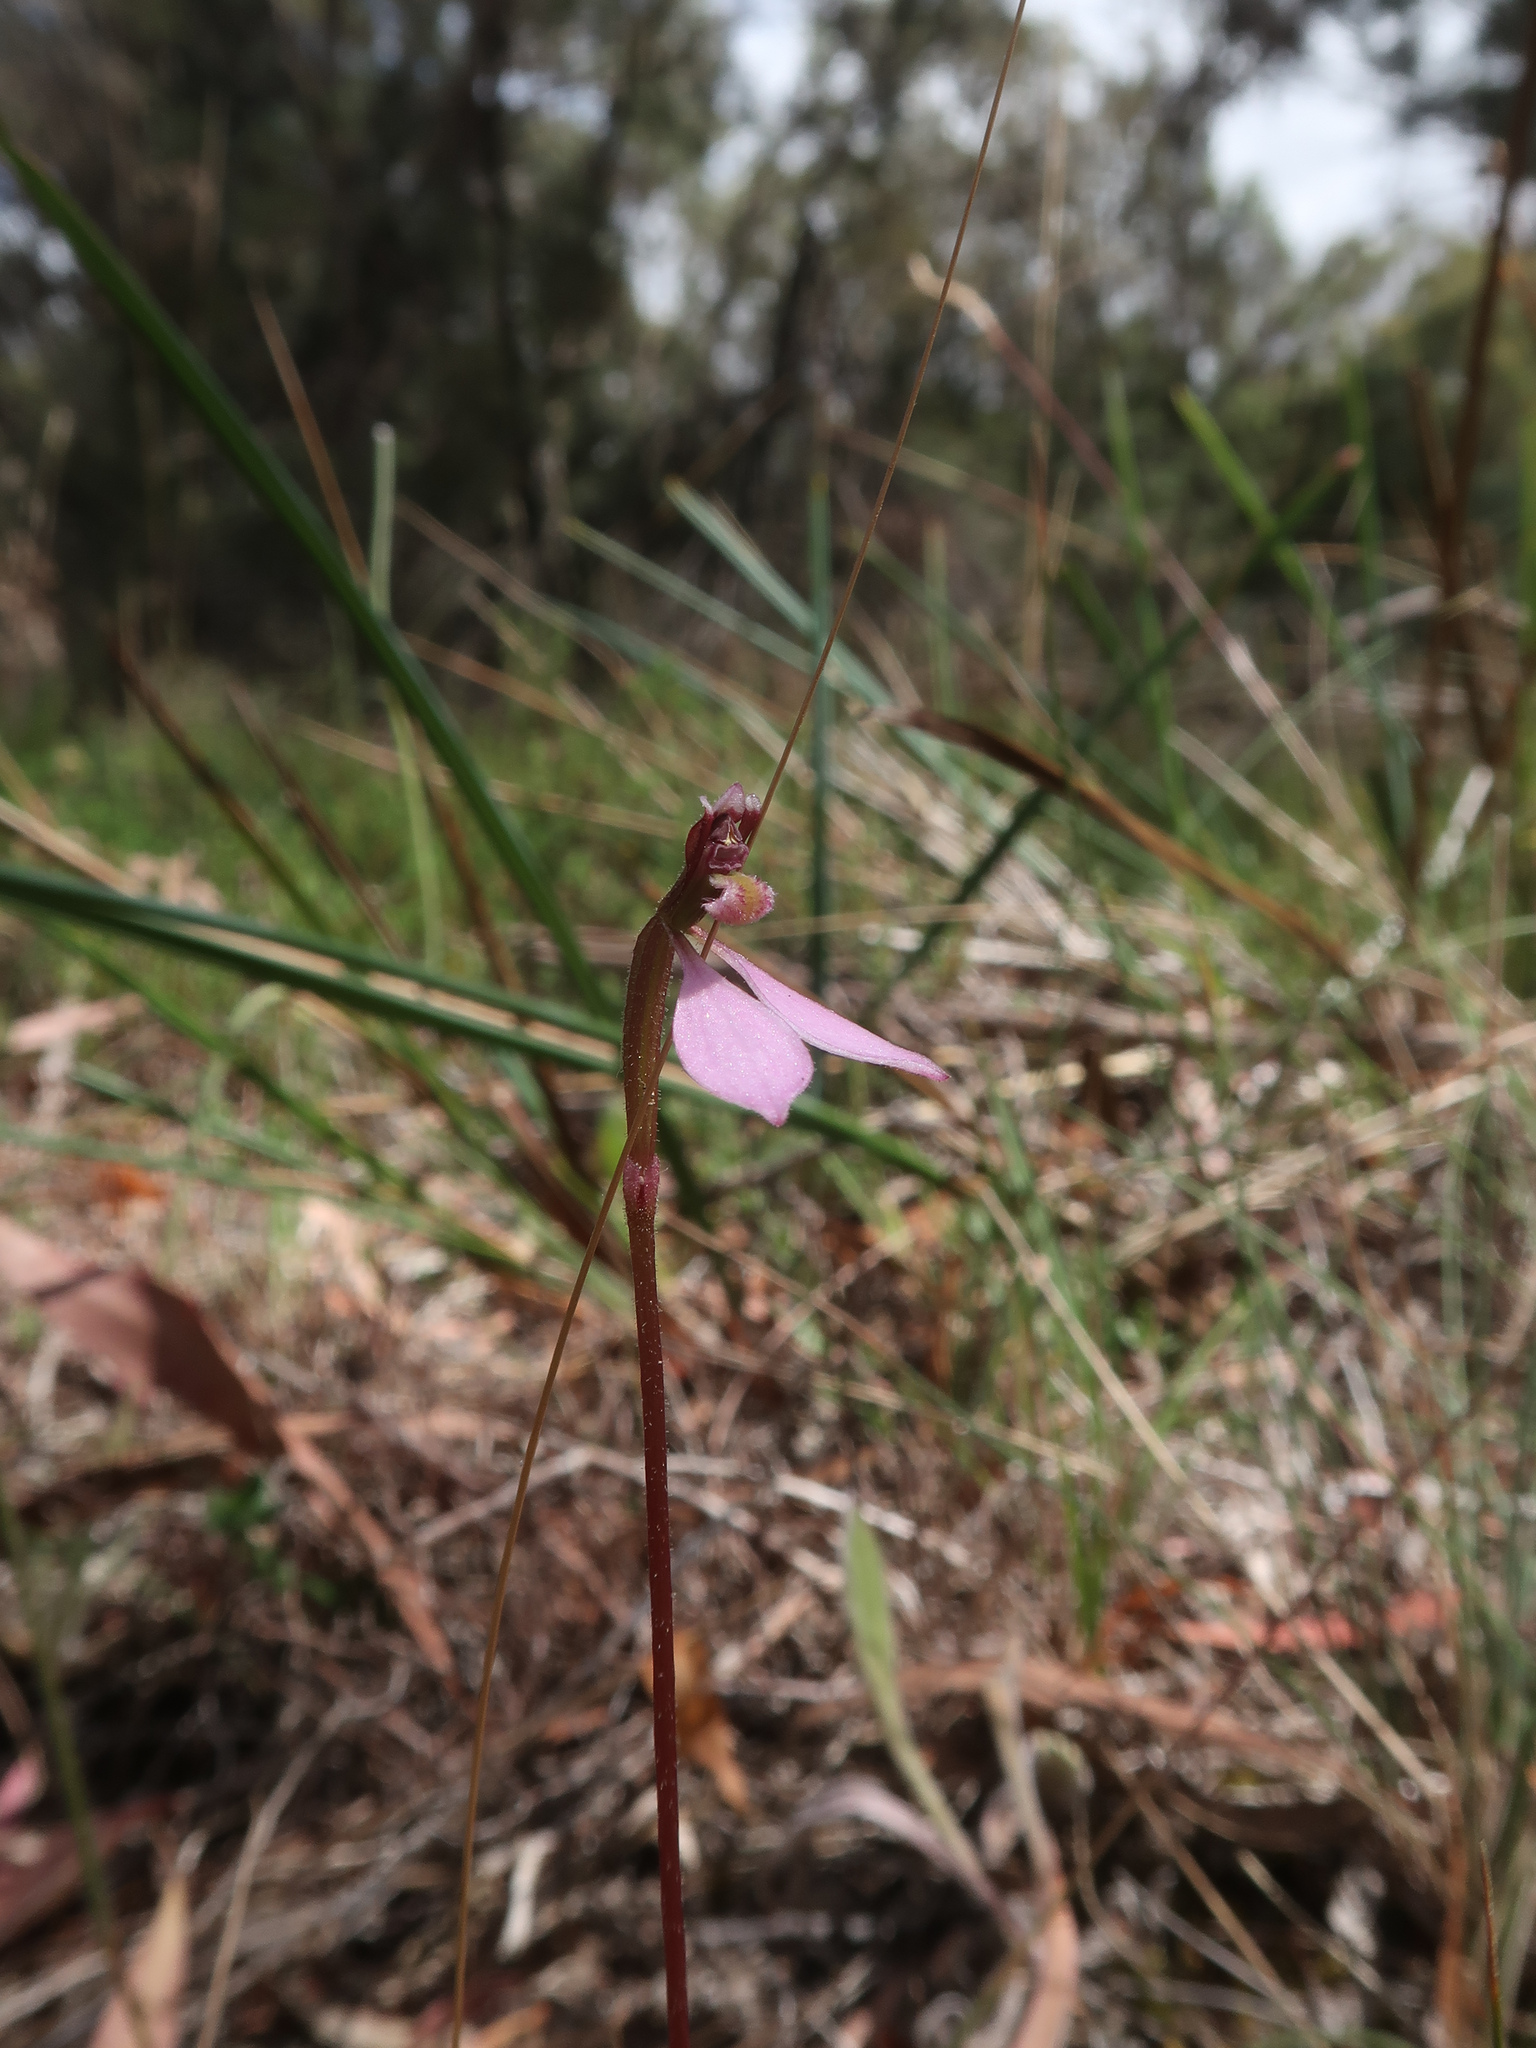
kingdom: Plantae
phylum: Tracheophyta
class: Liliopsida
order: Asparagales
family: Orchidaceae
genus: Eriochilus
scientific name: Eriochilus cucullatus
